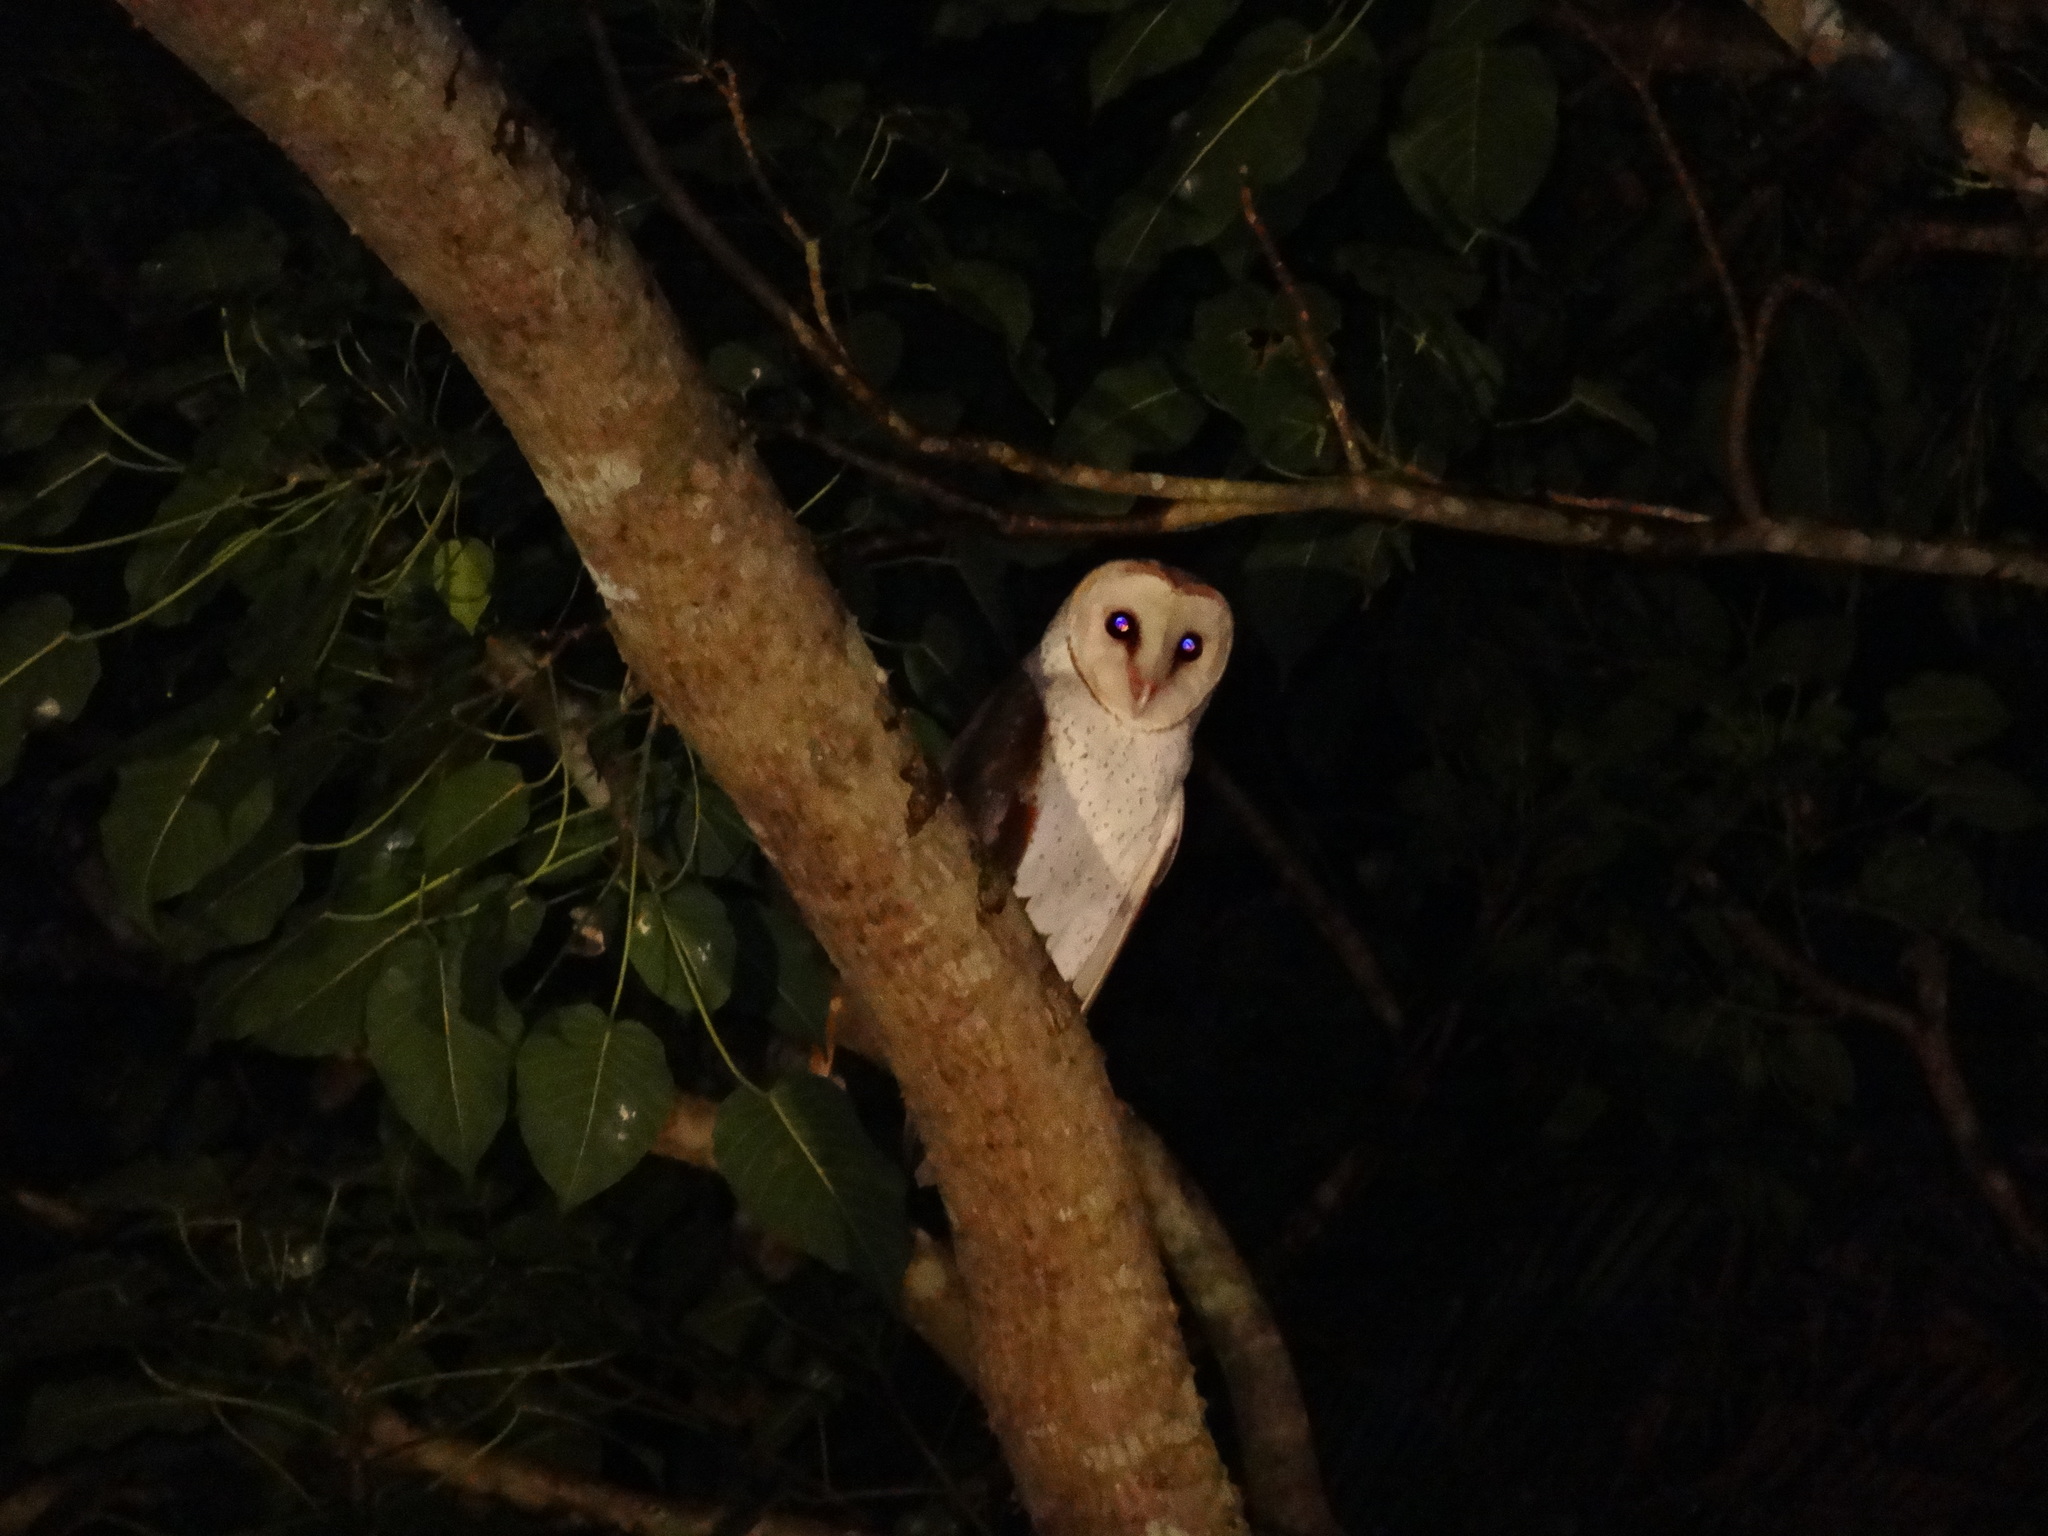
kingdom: Animalia
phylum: Chordata
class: Aves
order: Strigiformes
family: Tytonidae
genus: Tyto
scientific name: Tyto alba
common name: Barn owl
